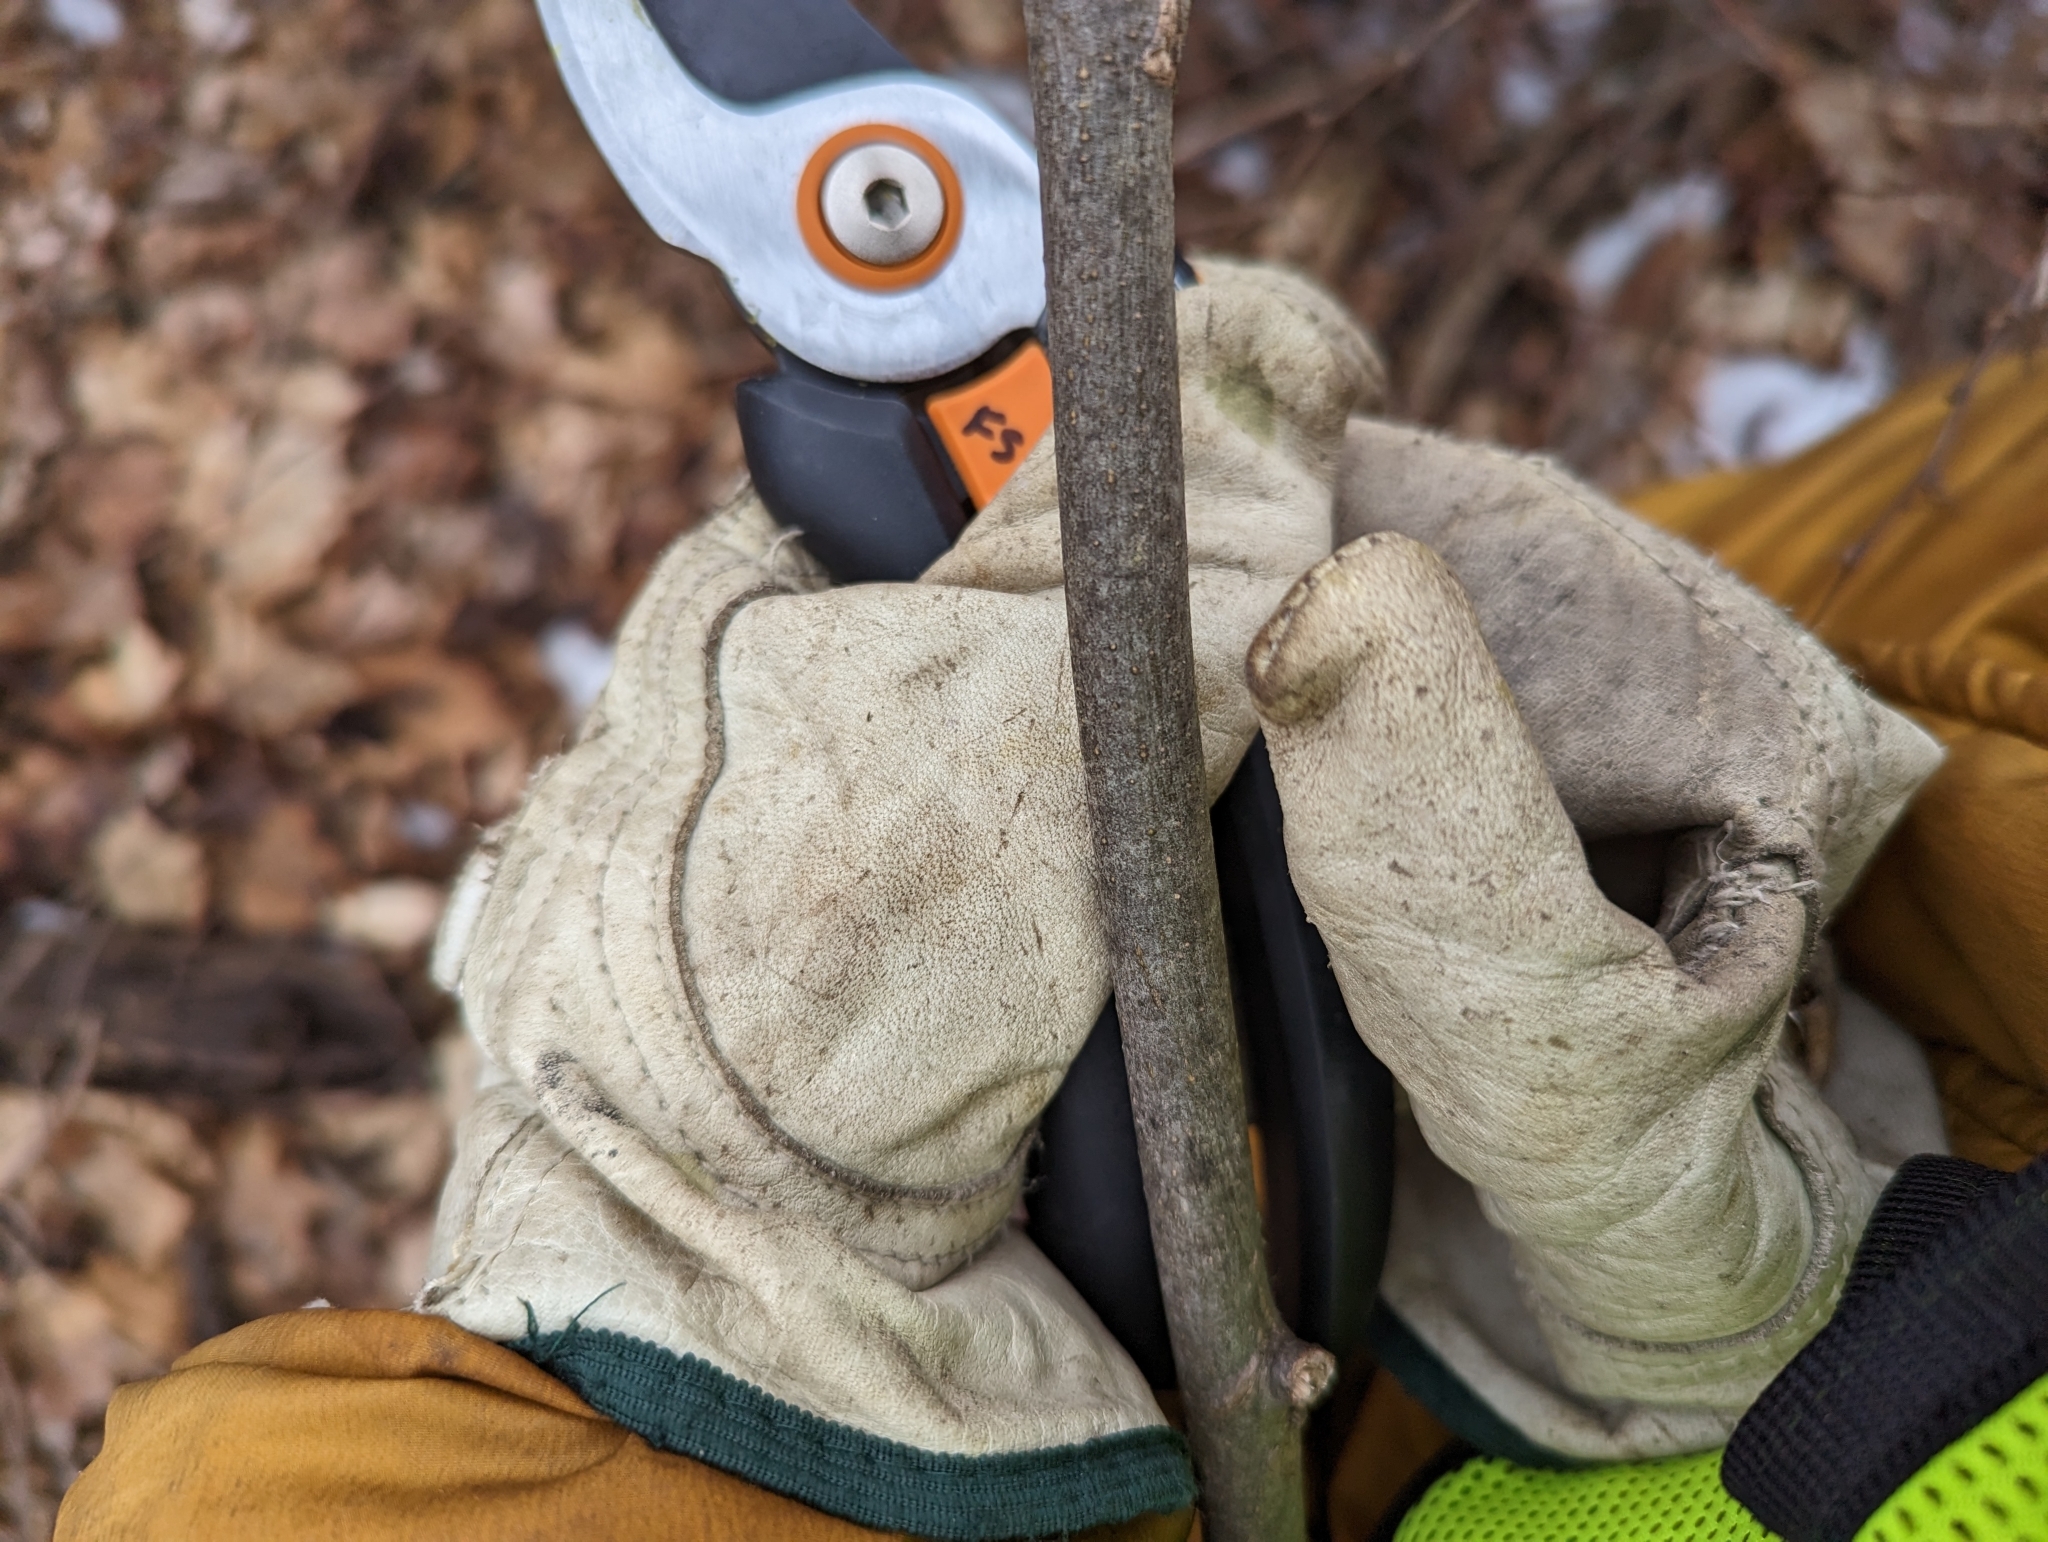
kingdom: Plantae
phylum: Tracheophyta
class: Magnoliopsida
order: Fagales
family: Juglandaceae
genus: Carya
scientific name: Carya cordiformis
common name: Bitternut hickory
